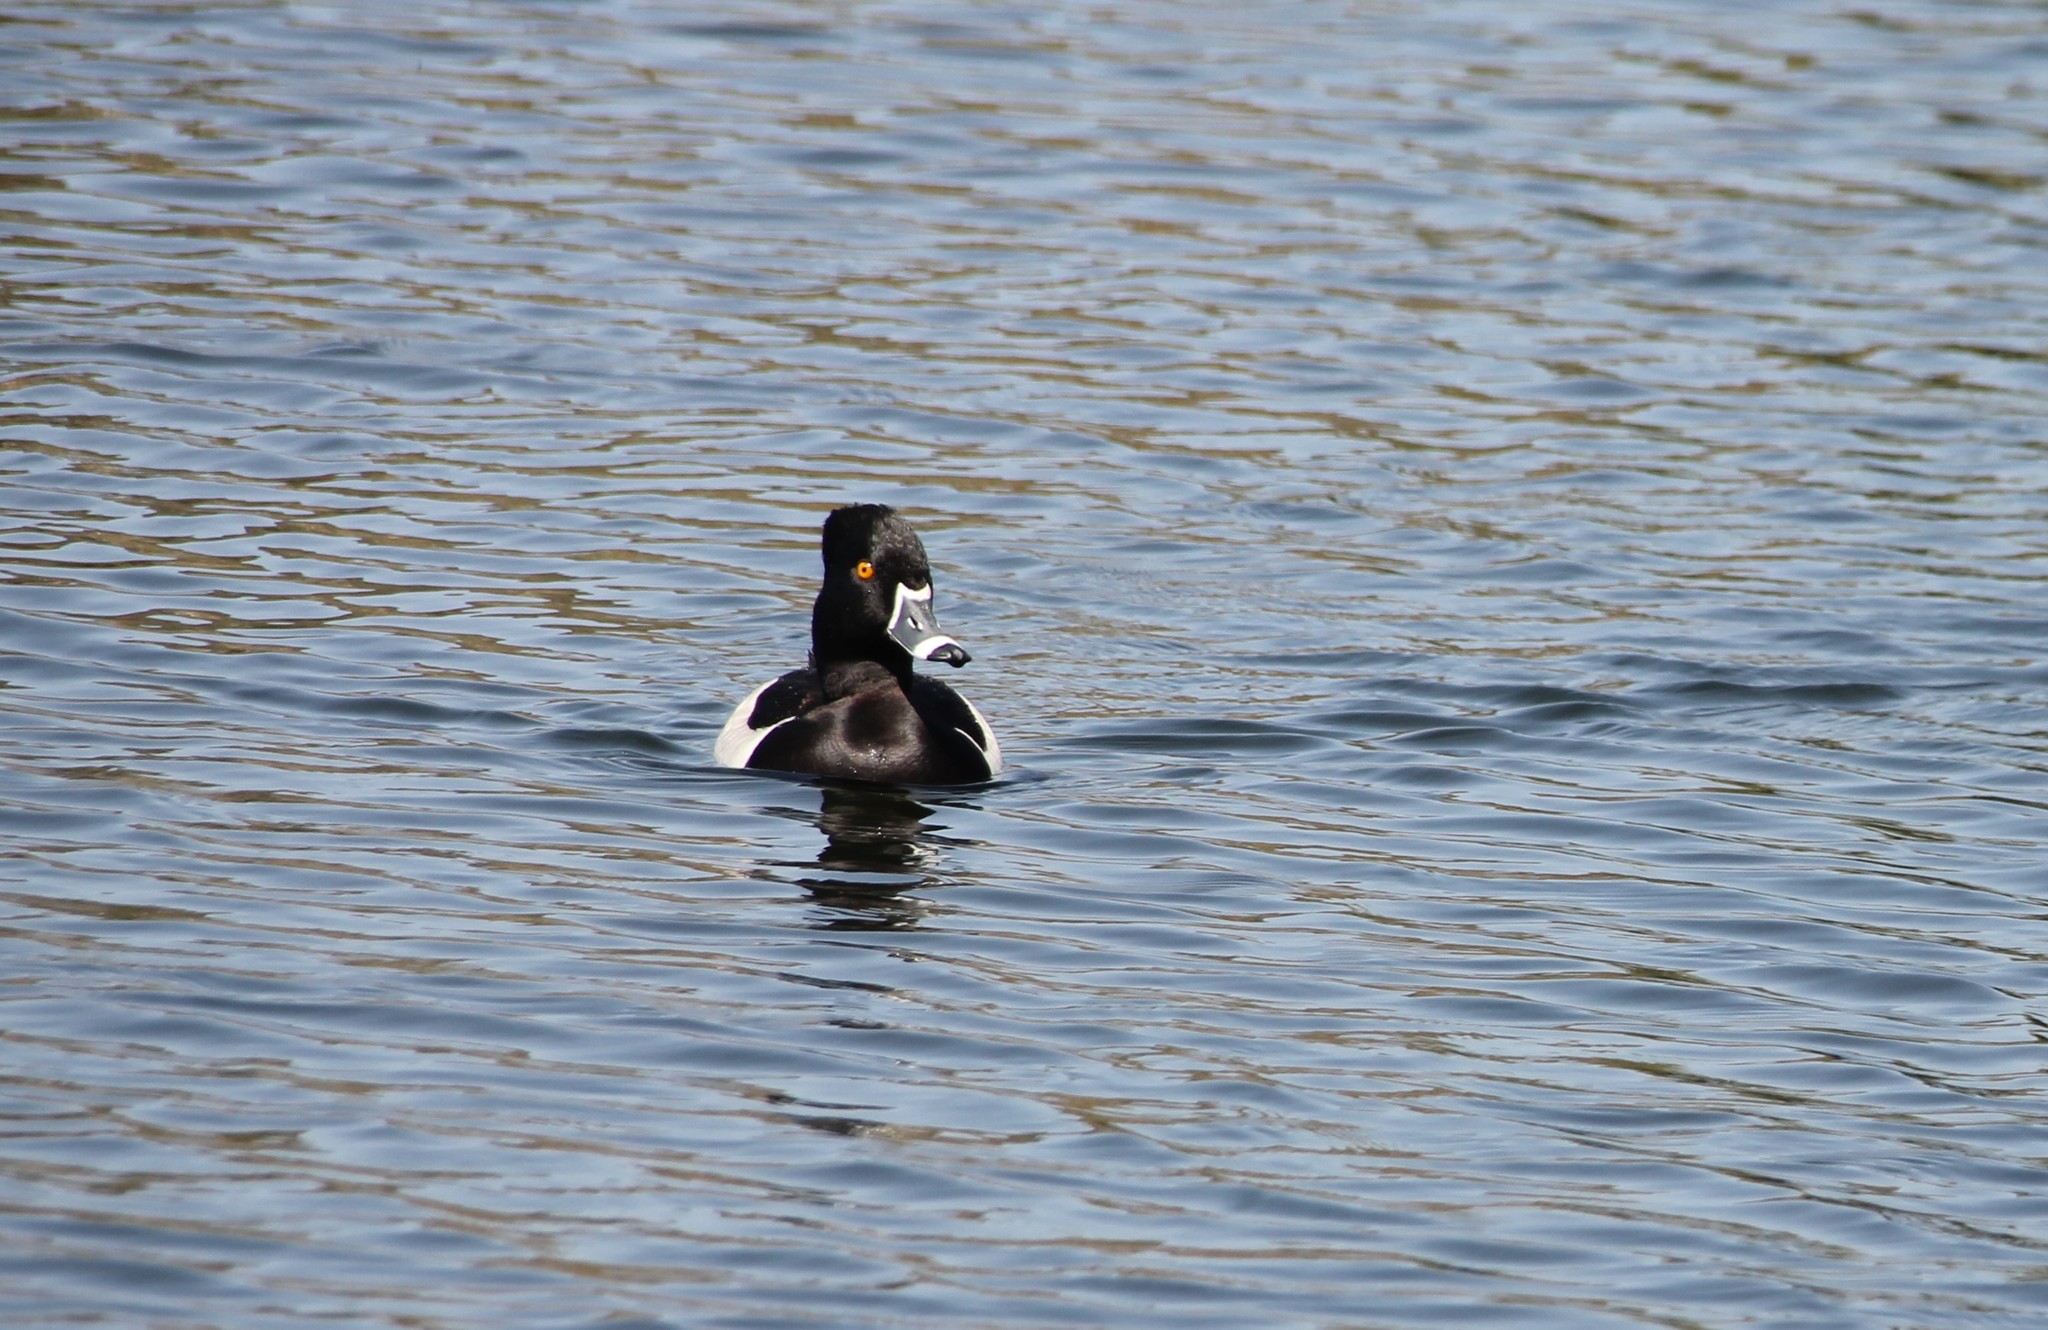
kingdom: Animalia
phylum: Chordata
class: Aves
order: Anseriformes
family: Anatidae
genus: Aythya
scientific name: Aythya collaris
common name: Ring-necked duck
